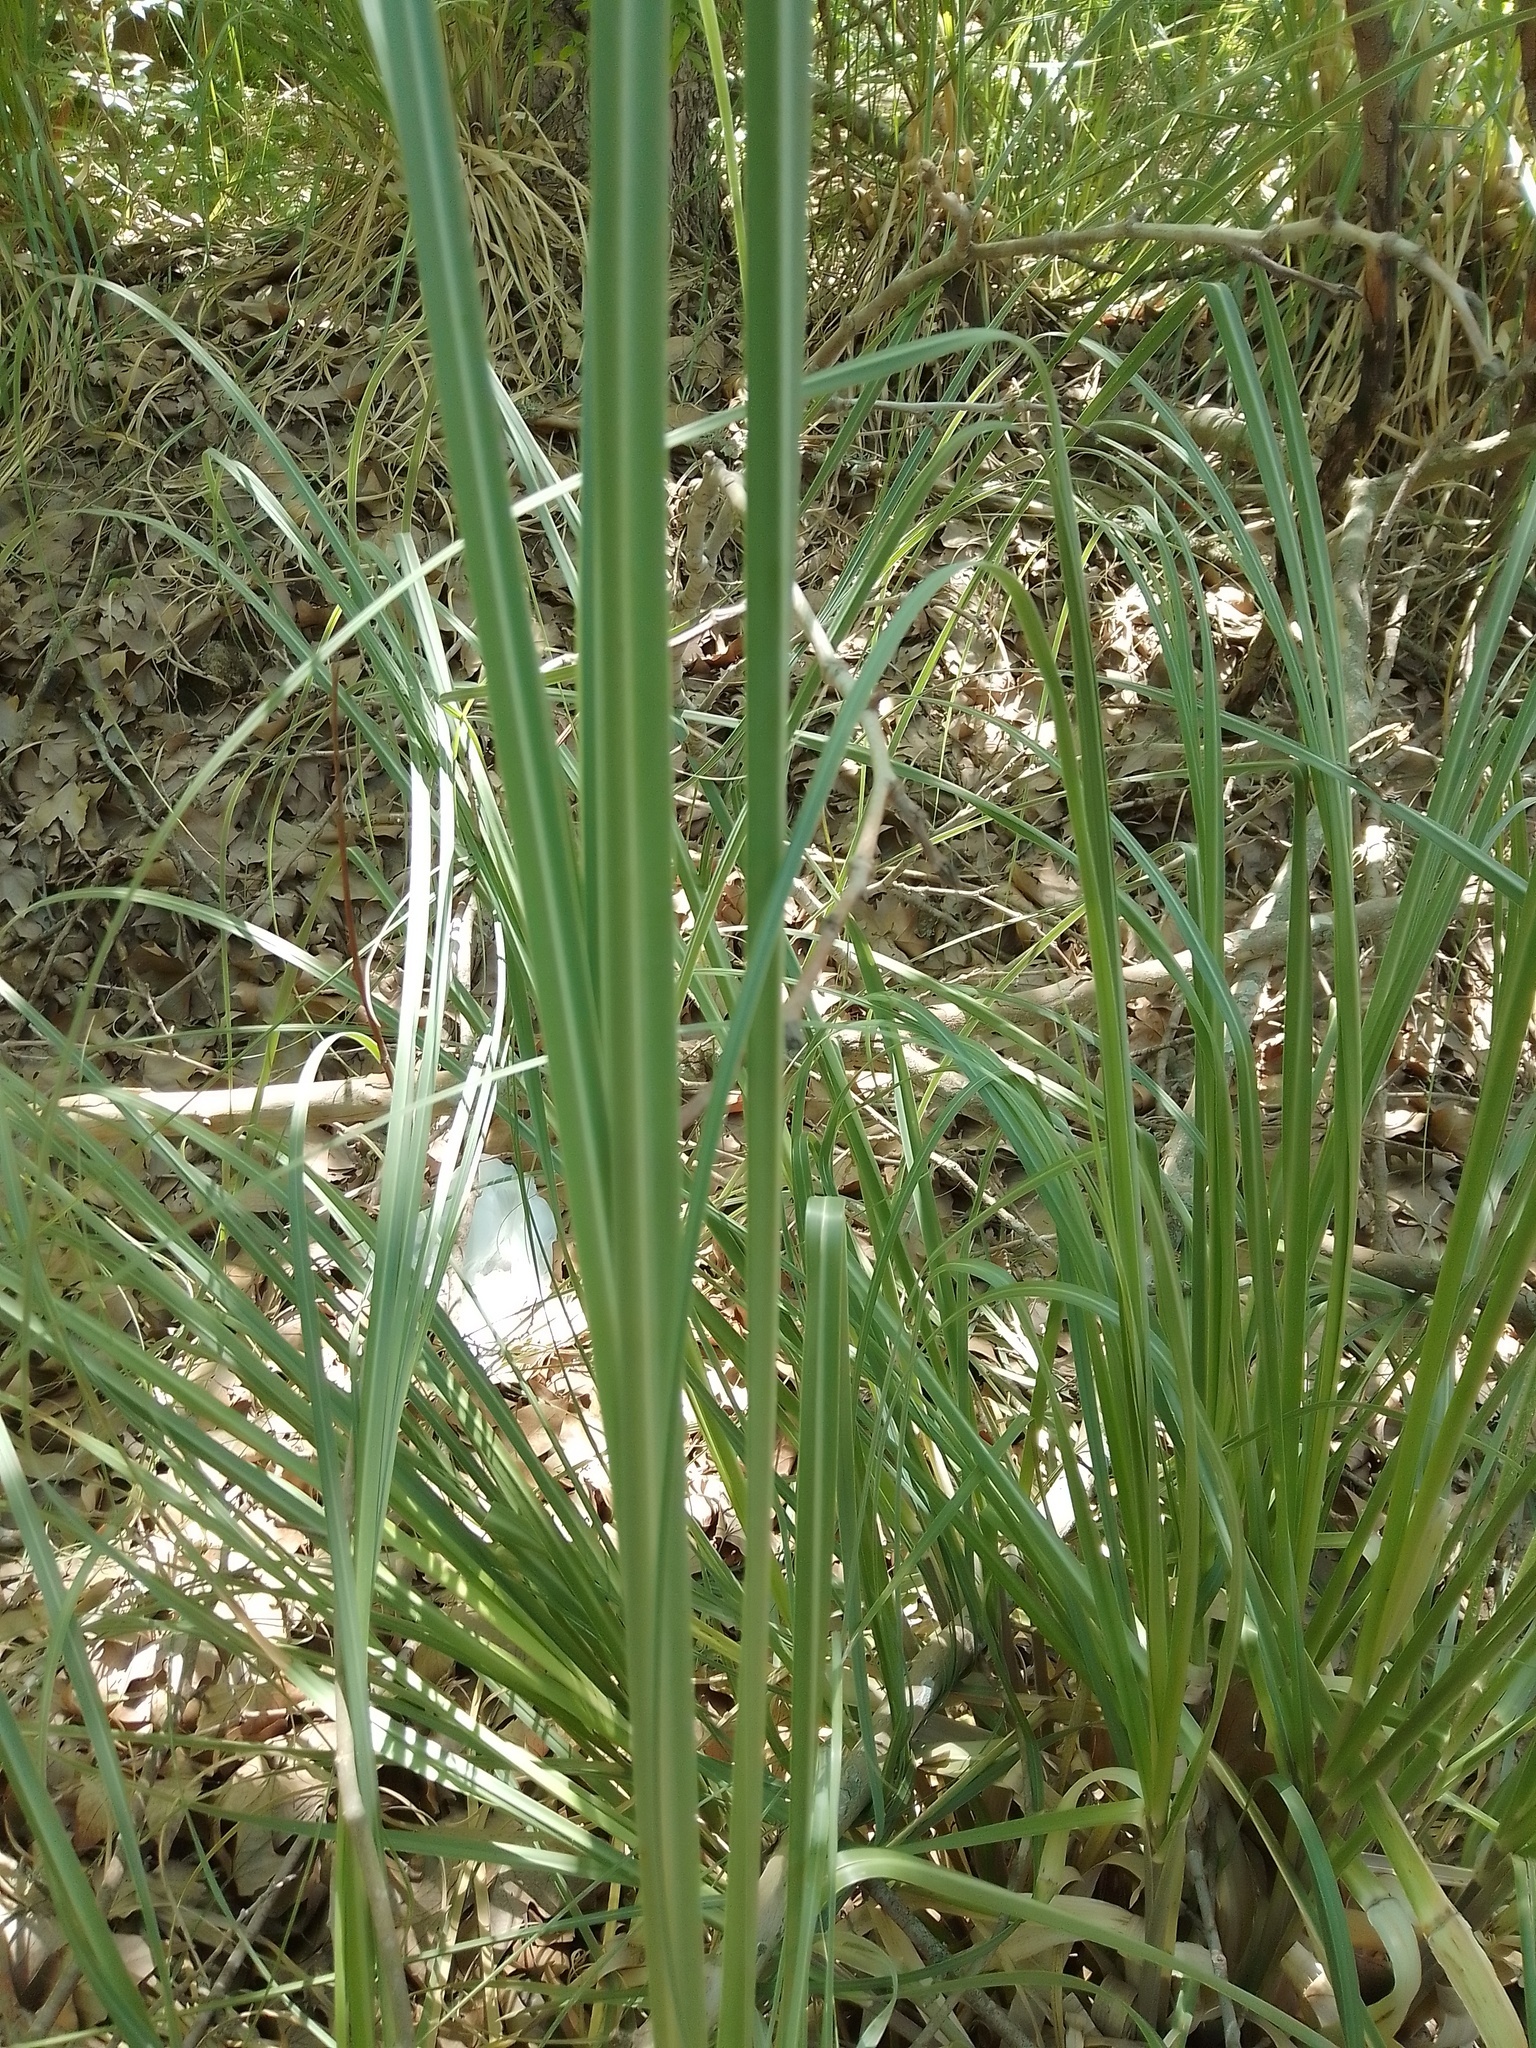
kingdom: Plantae
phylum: Tracheophyta
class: Liliopsida
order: Poales
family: Poaceae
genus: Cortaderia
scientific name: Cortaderia selloana
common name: Uruguayan pampas grass
